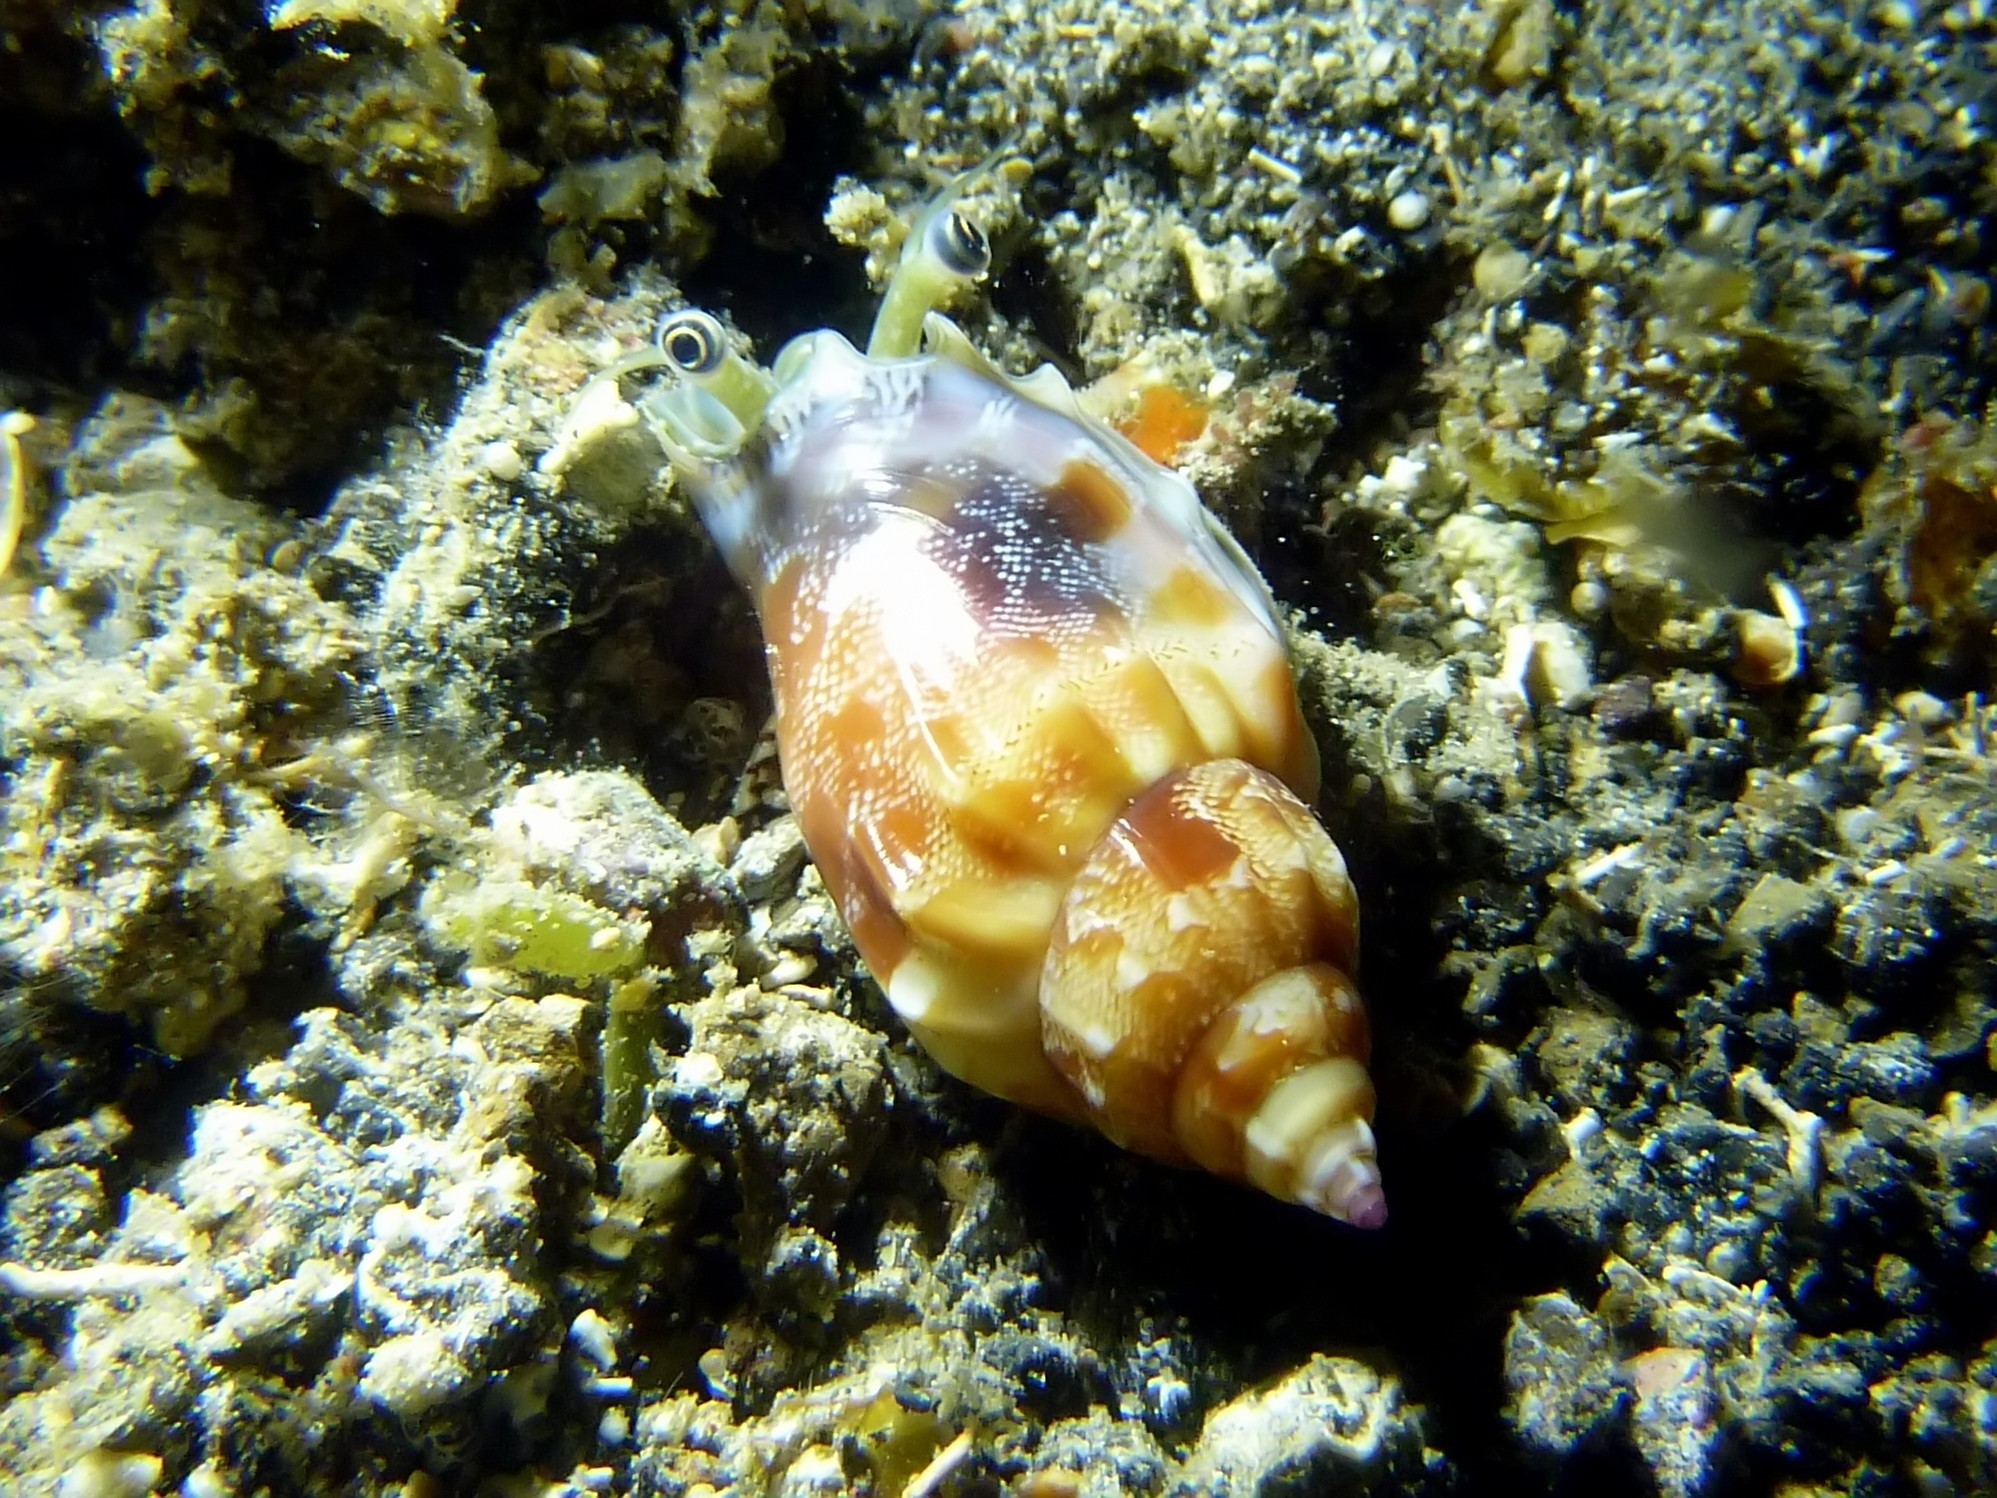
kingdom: Animalia
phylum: Mollusca
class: Gastropoda
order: Littorinimorpha
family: Strombidae
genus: Tridentarius
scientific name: Tridentarius dentatus
